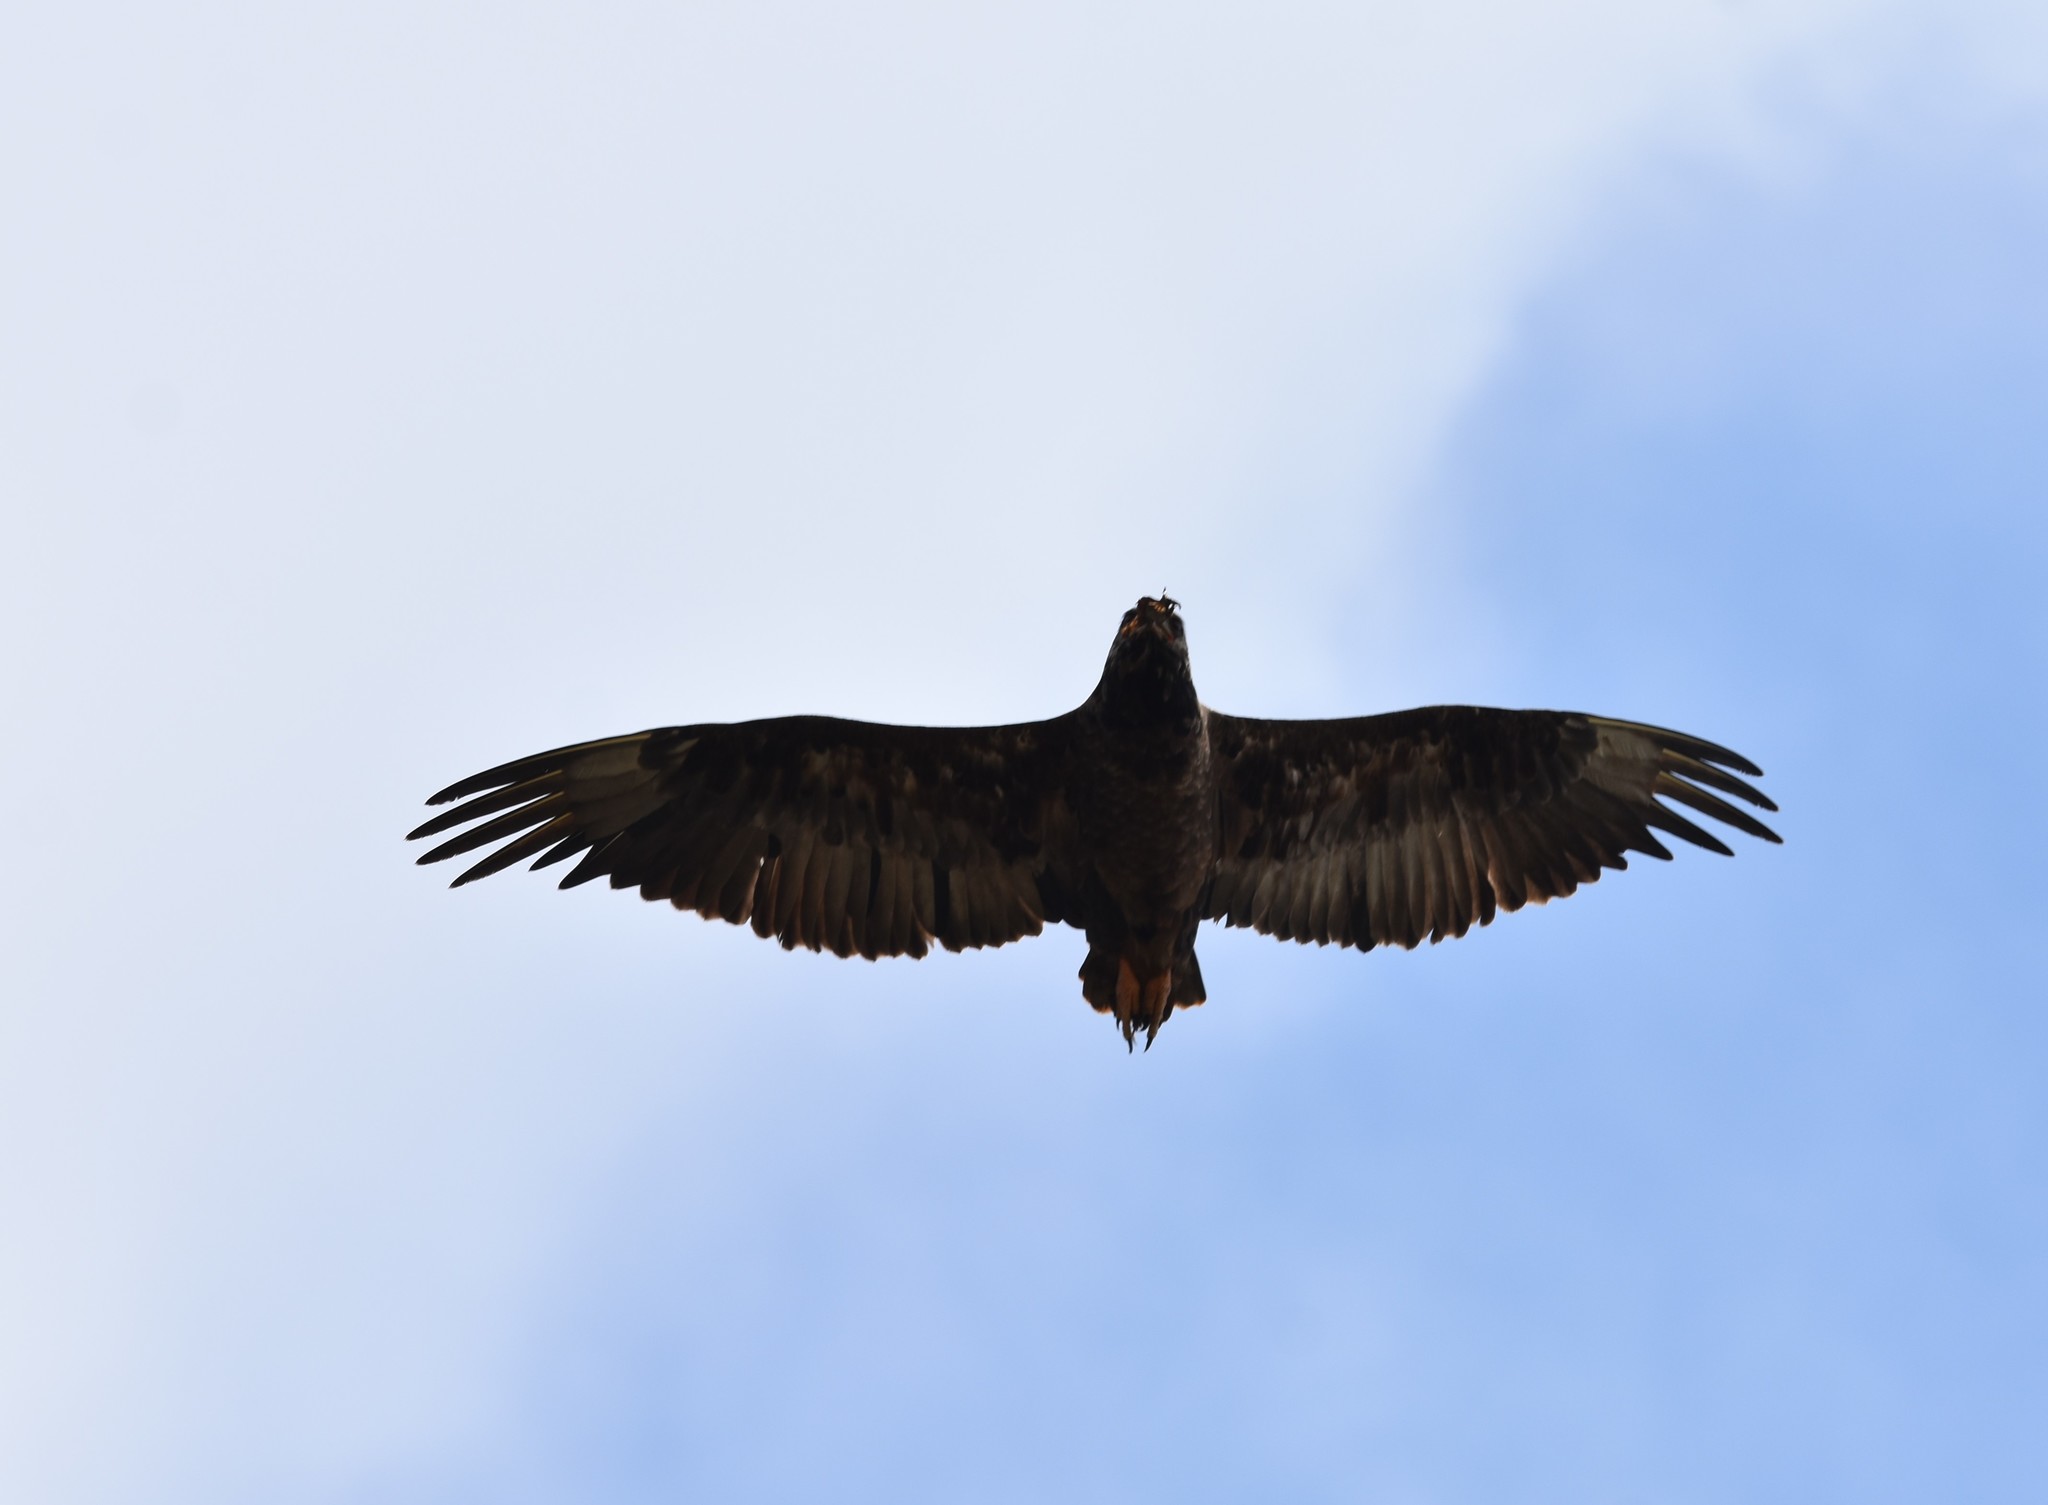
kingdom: Animalia
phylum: Chordata
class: Aves
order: Accipitriformes
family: Accipitridae
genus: Terathopius
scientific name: Terathopius ecaudatus
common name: Bateleur
